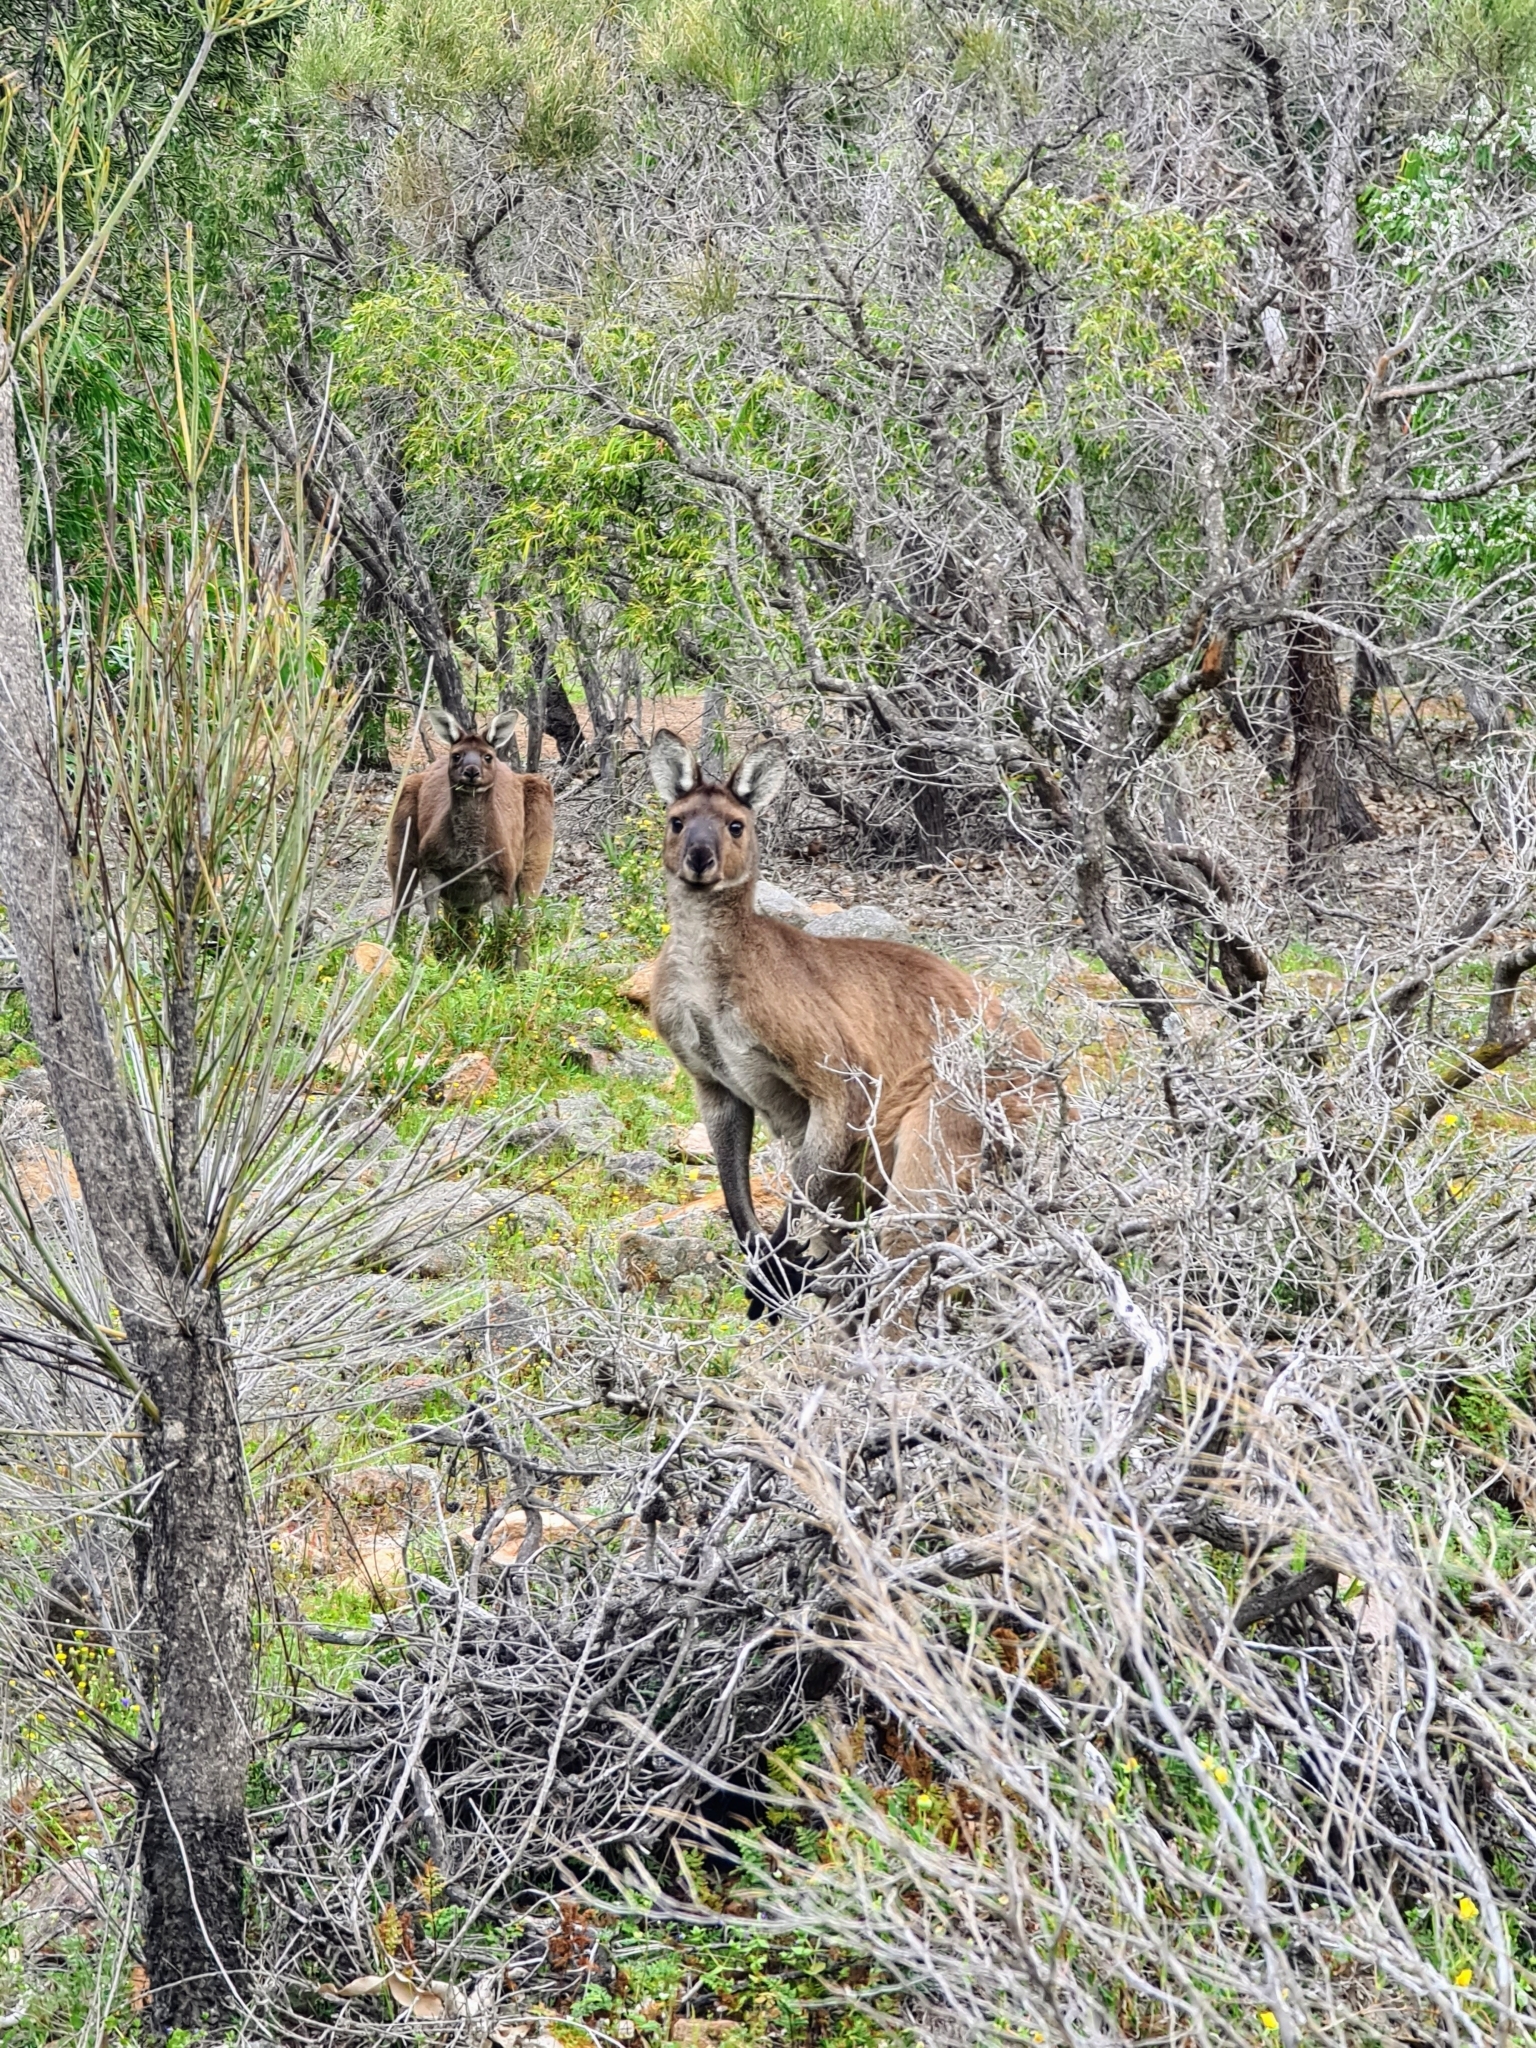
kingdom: Animalia
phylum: Chordata
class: Mammalia
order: Diprotodontia
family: Macropodidae
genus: Macropus
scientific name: Macropus fuliginosus
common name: Western grey kangaroo
